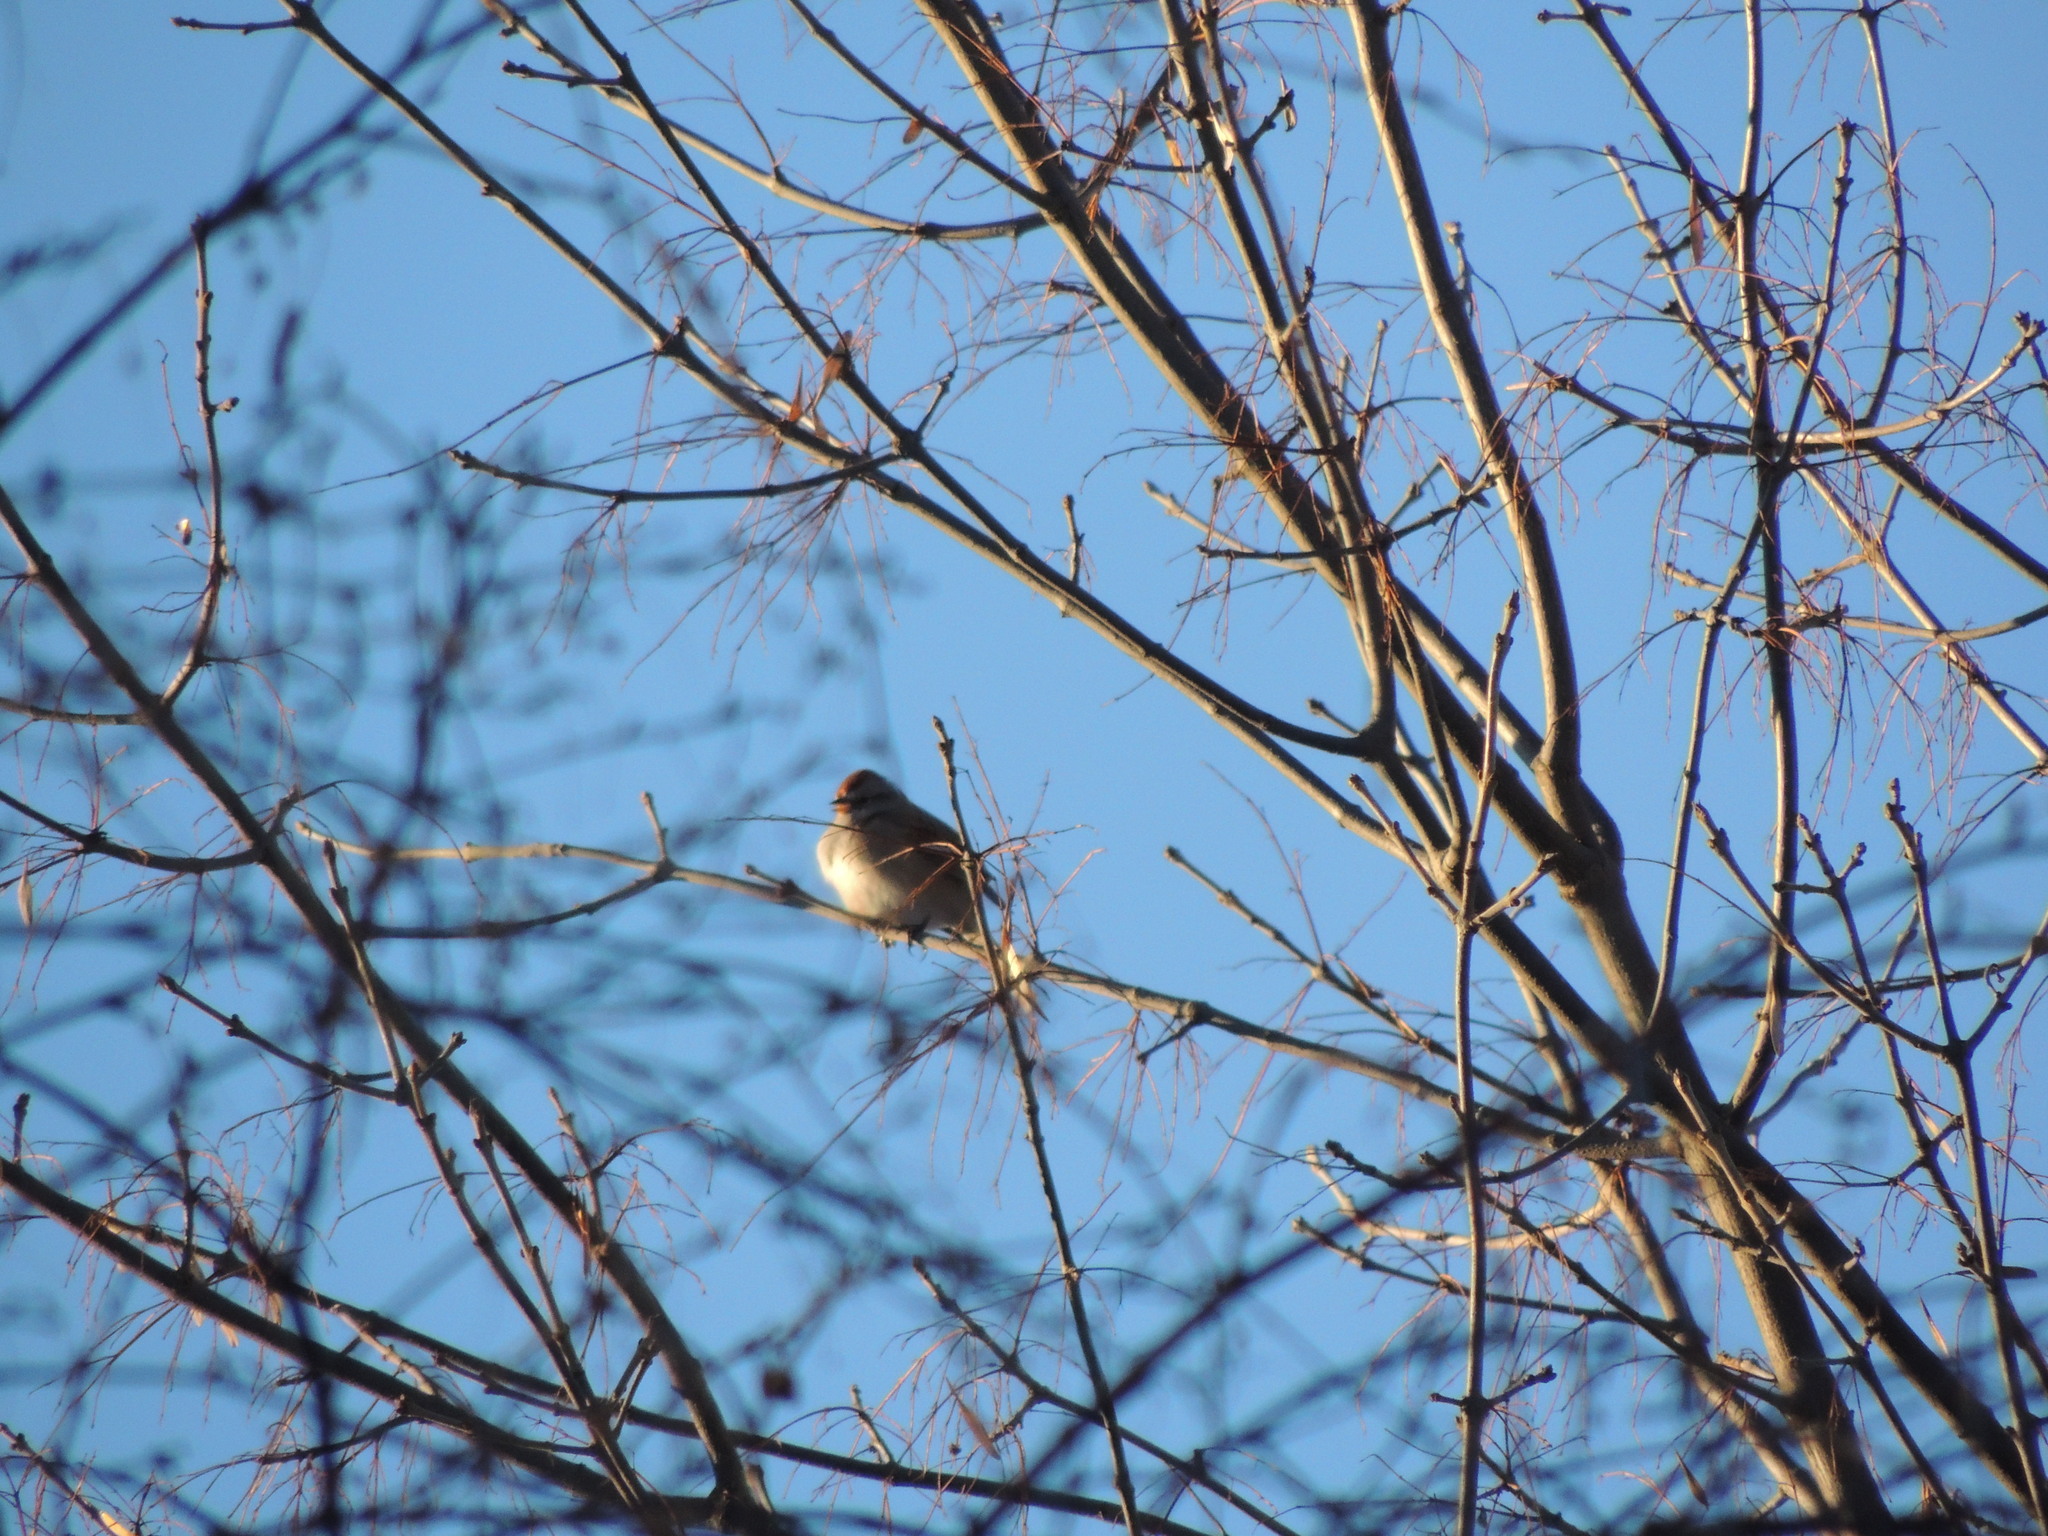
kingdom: Animalia
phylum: Chordata
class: Aves
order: Passeriformes
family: Passerellidae
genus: Spizelloides
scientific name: Spizelloides arborea
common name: American tree sparrow
